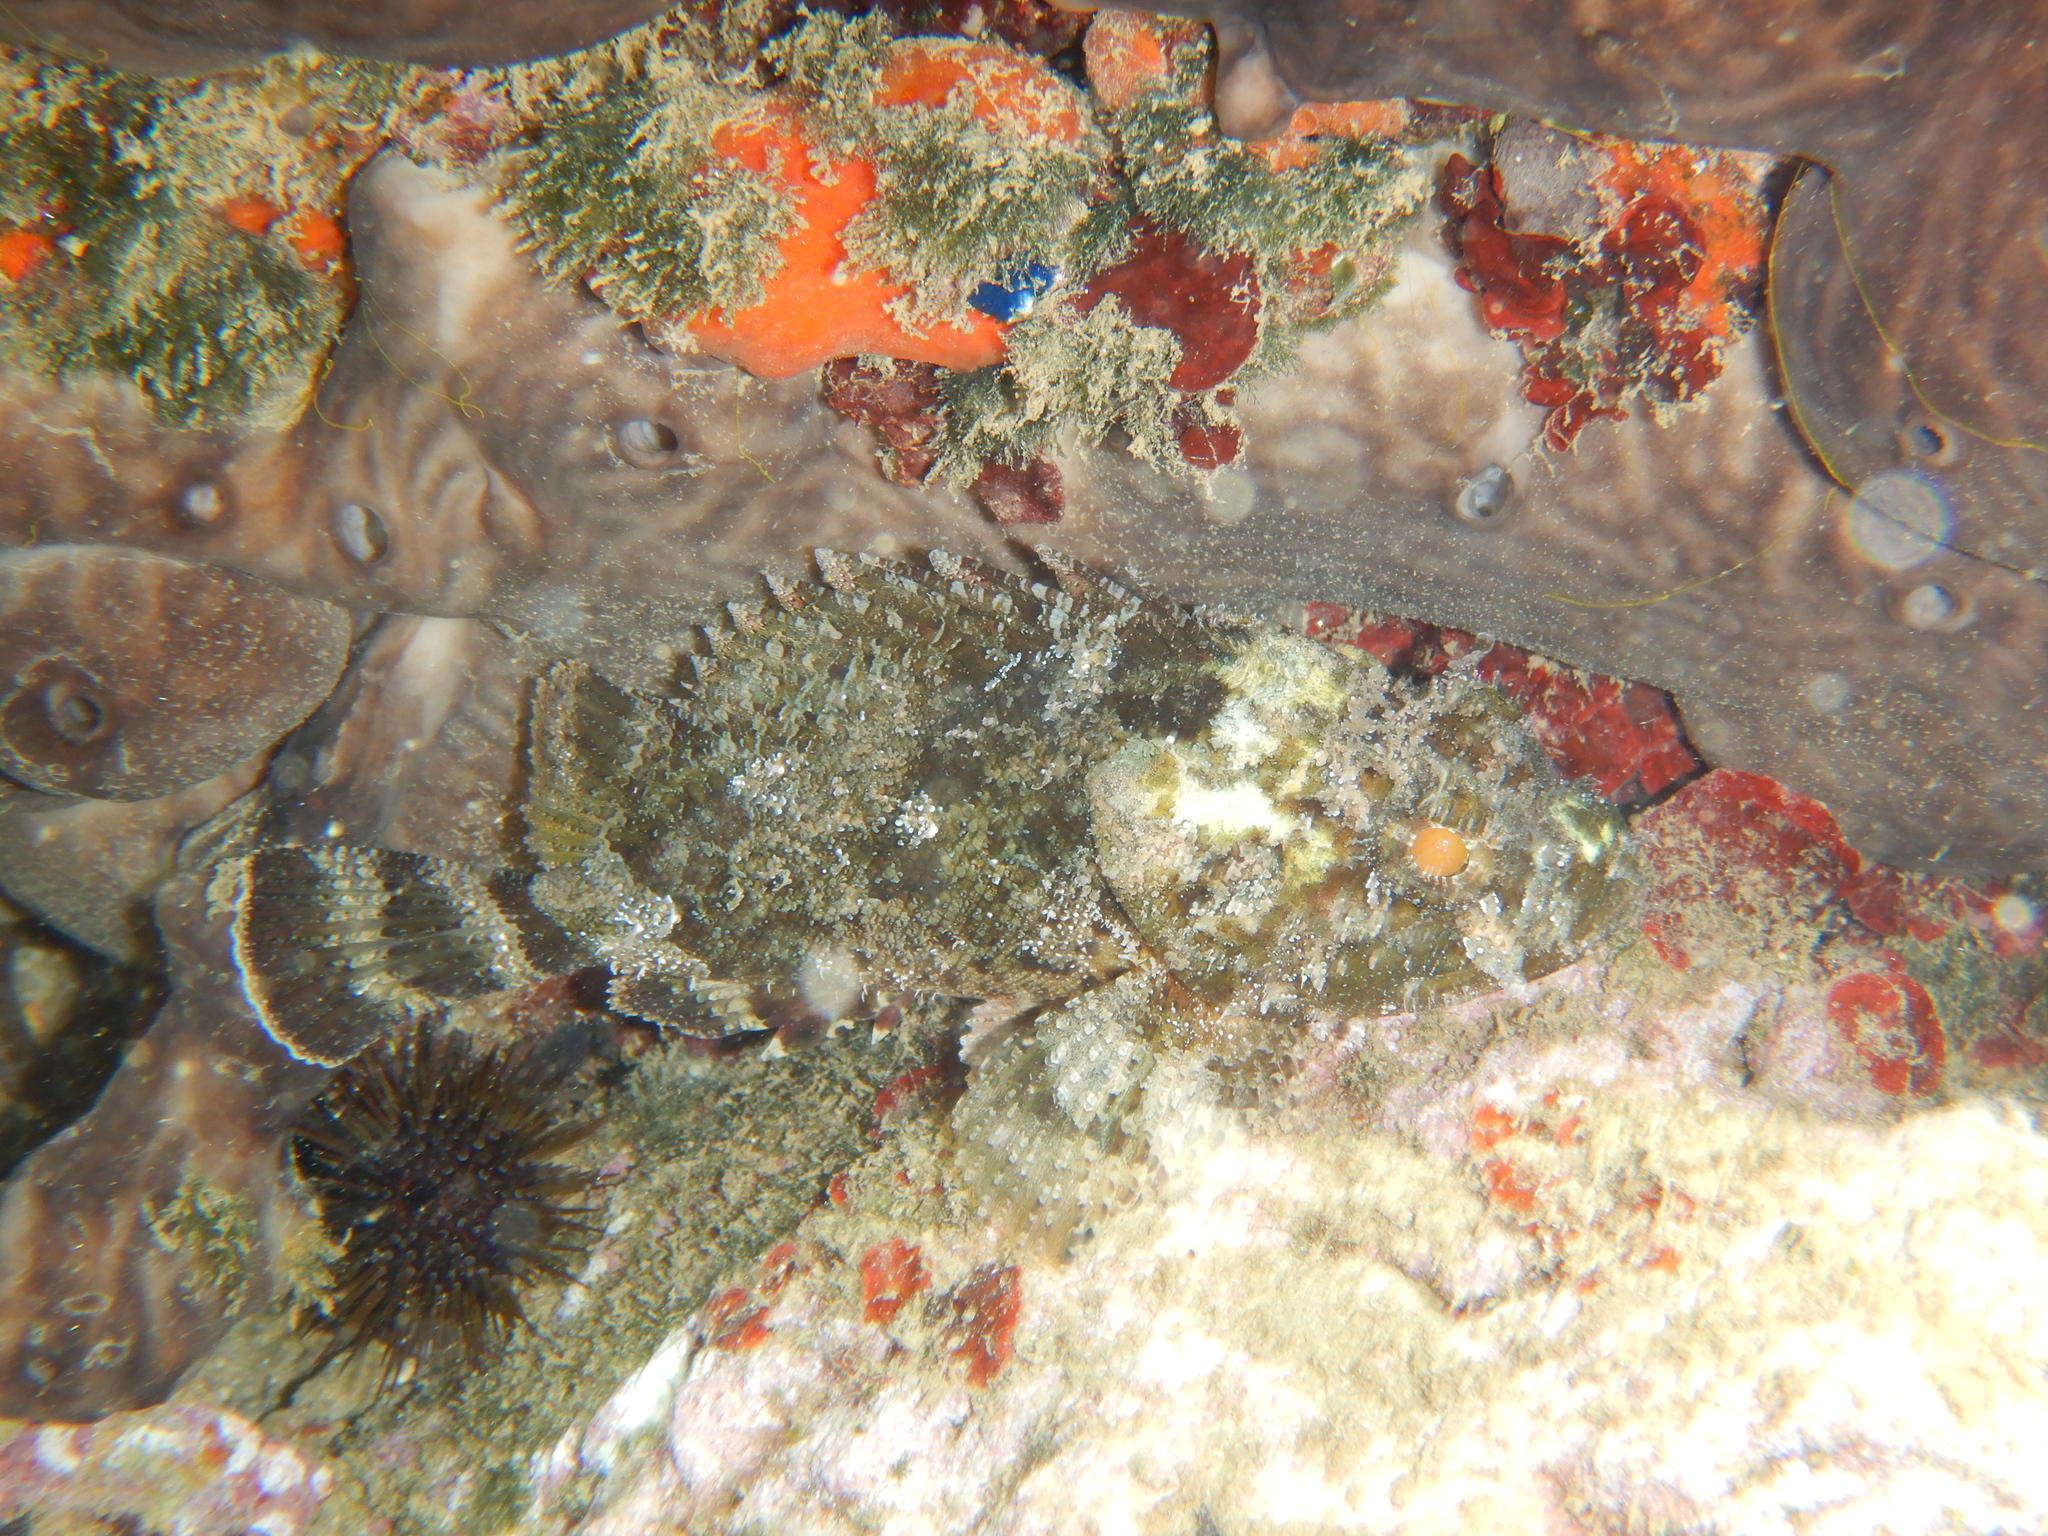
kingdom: Animalia
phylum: Chordata
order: Scorpaeniformes
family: Scorpaenidae
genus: Scorpaena
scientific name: Scorpaena porcus
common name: Black scorpionfish
